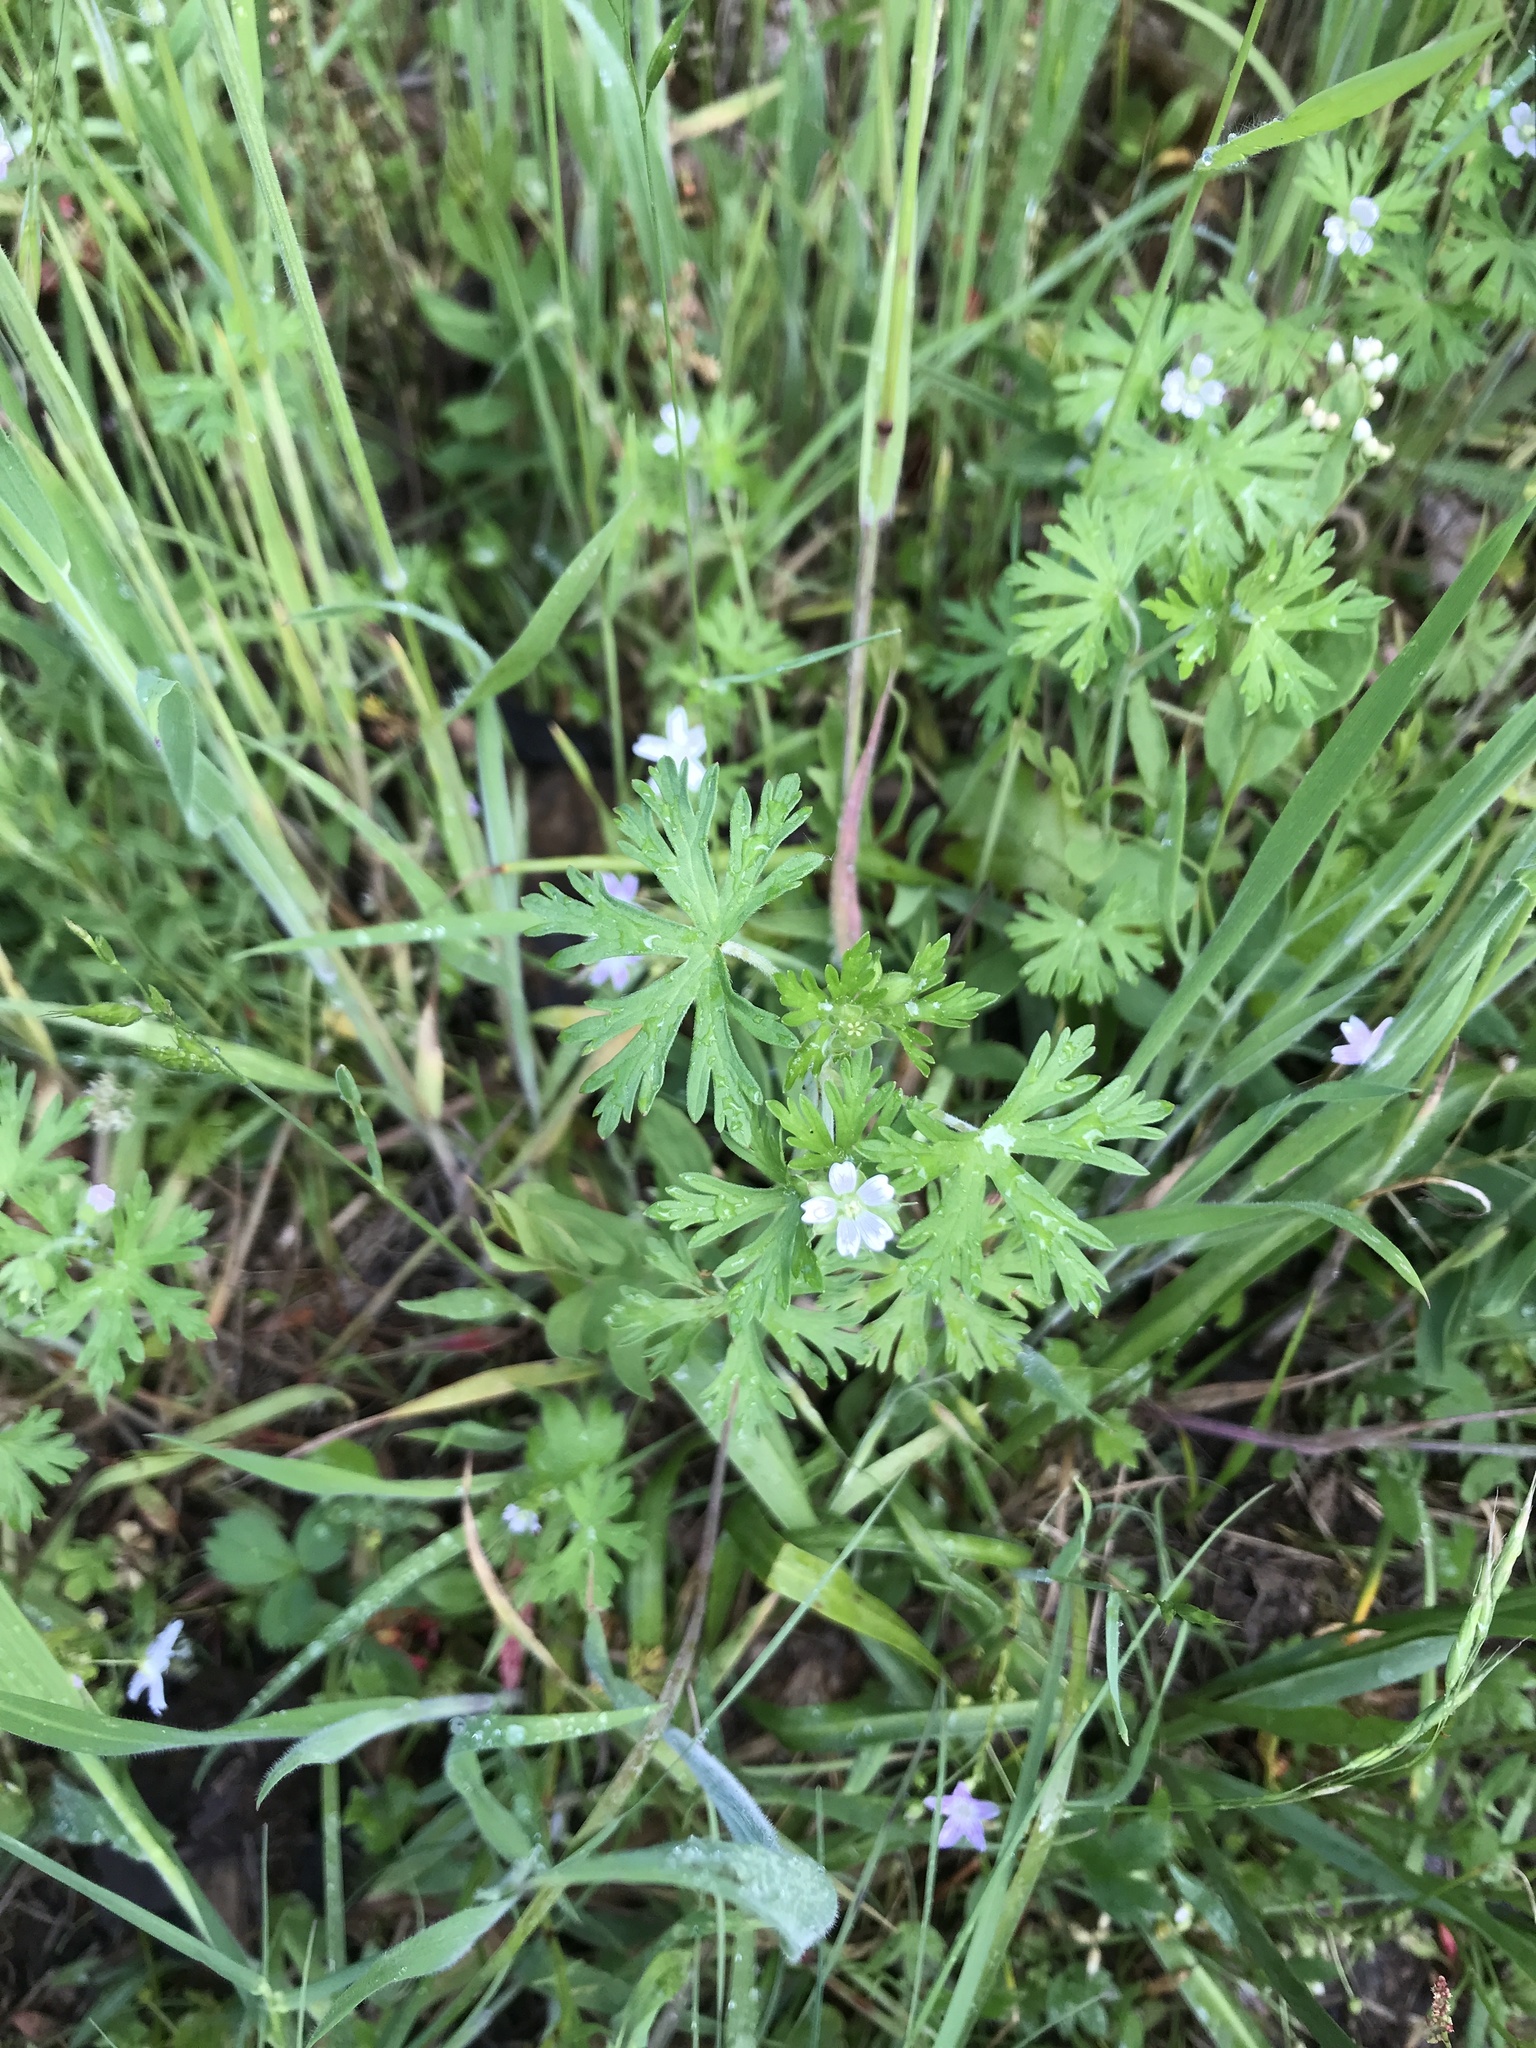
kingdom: Plantae
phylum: Tracheophyta
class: Magnoliopsida
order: Geraniales
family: Geraniaceae
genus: Geranium
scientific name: Geranium bicknellii
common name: Bicknell's cranesbill
